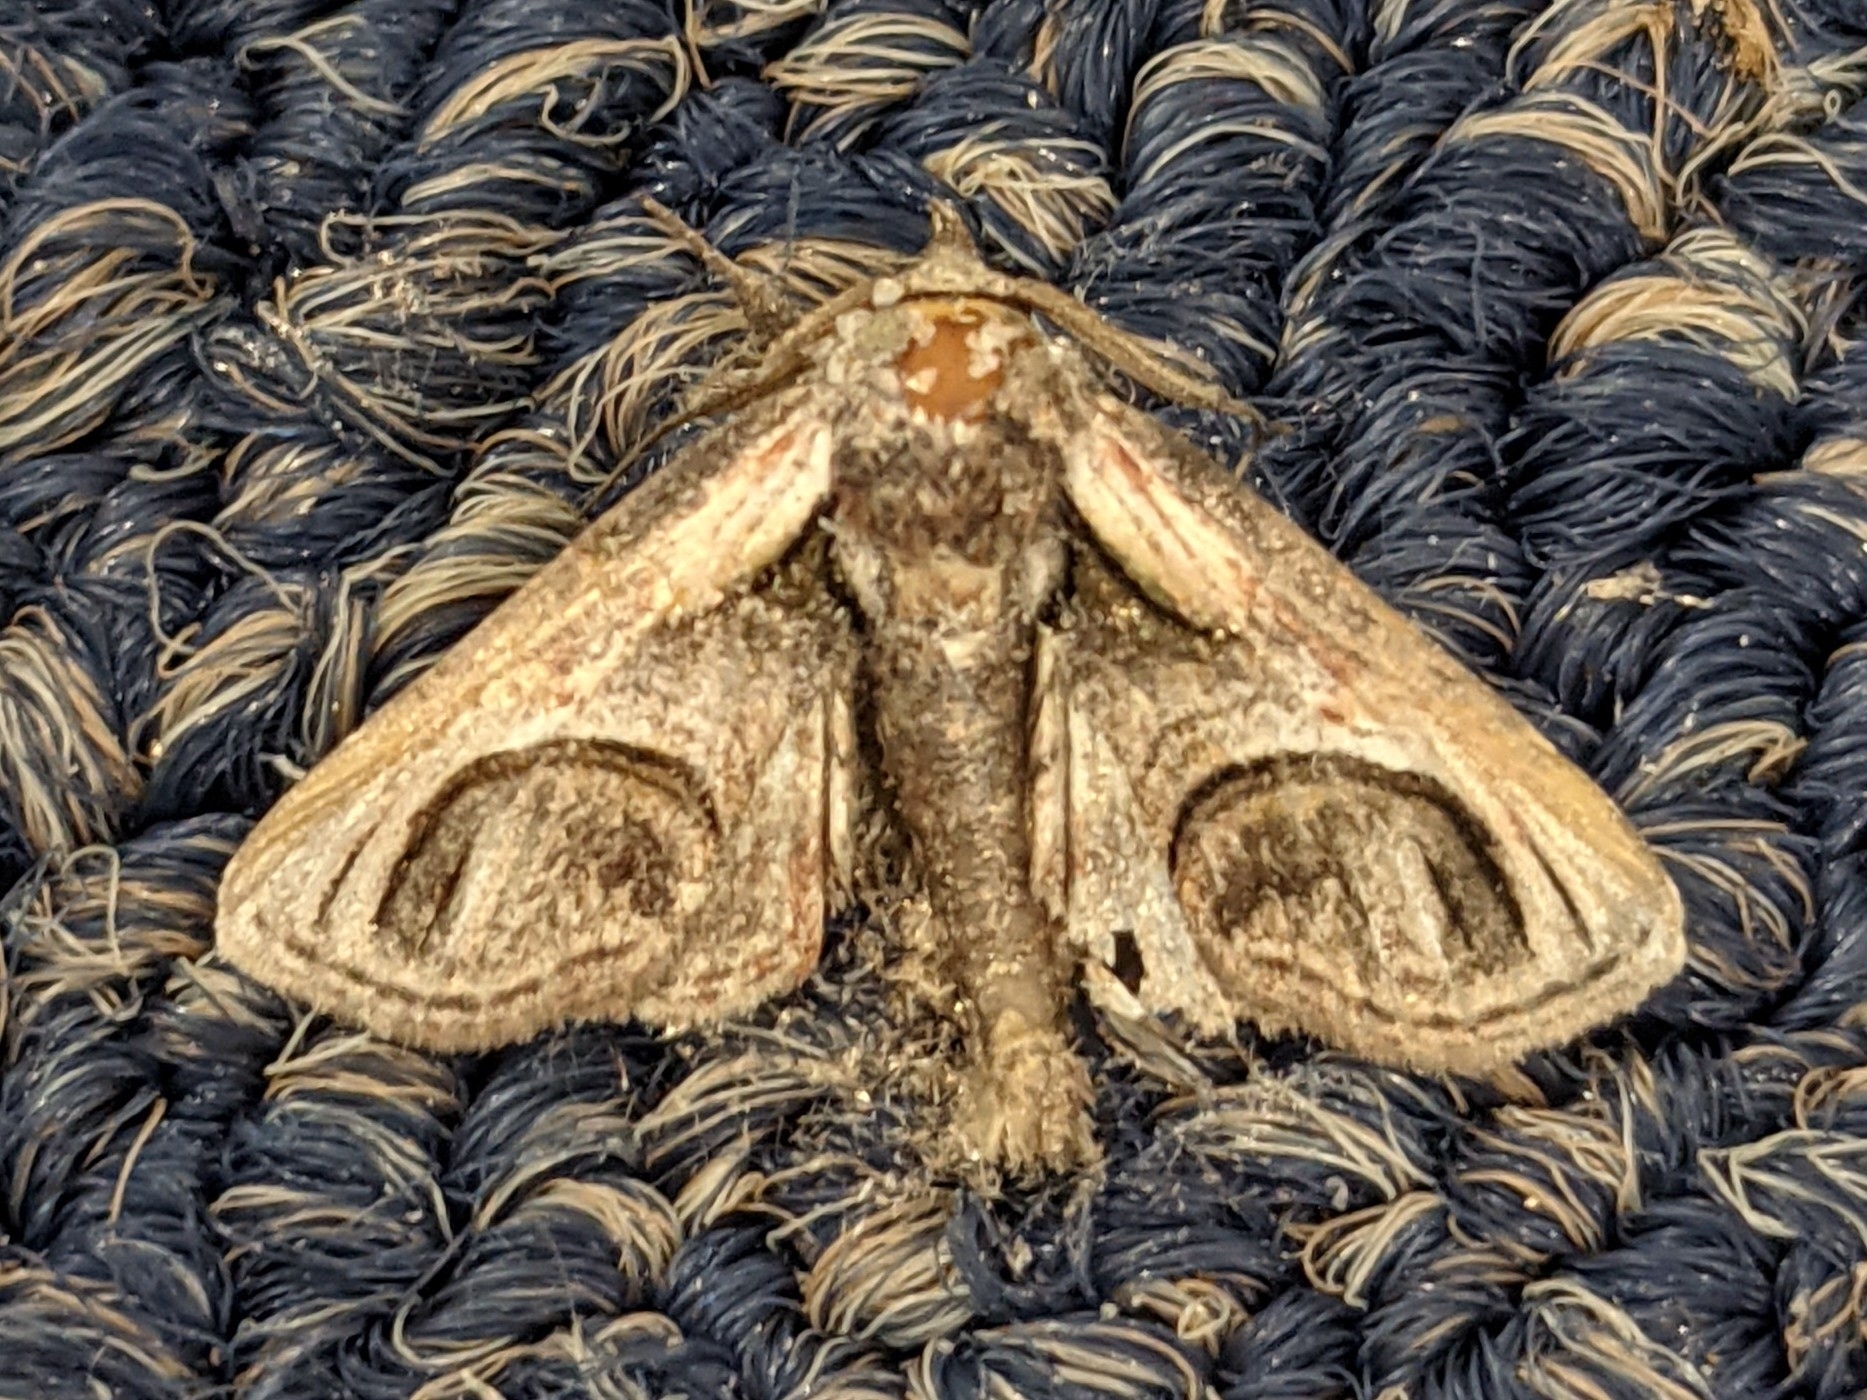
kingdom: Animalia
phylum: Arthropoda
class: Insecta
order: Lepidoptera
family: Euteliidae
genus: Paectes
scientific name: Paectes oculatrix
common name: Eyed paectes moth
